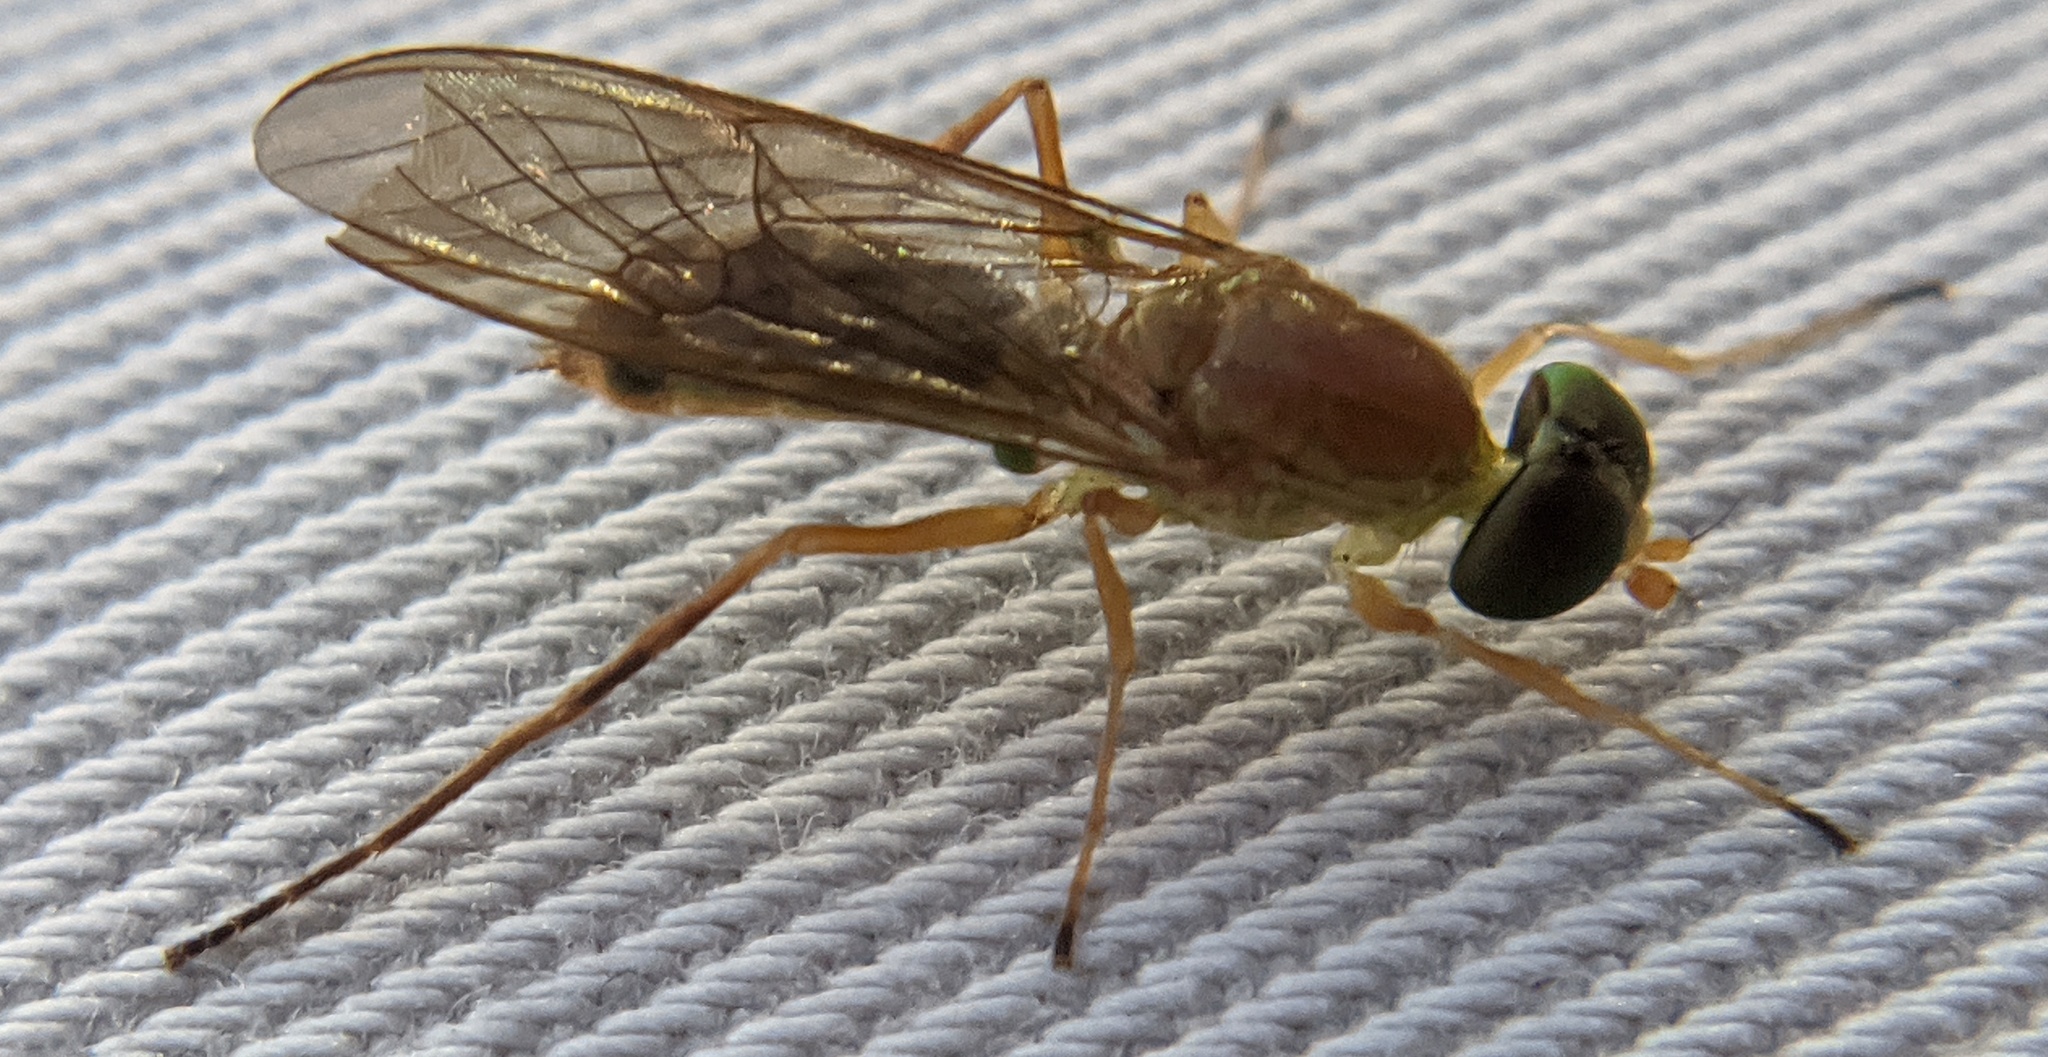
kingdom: Animalia
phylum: Arthropoda
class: Insecta
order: Diptera
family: Stratiomyidae
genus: Ptecticus
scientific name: Ptecticus trivittatus
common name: Compost fly
